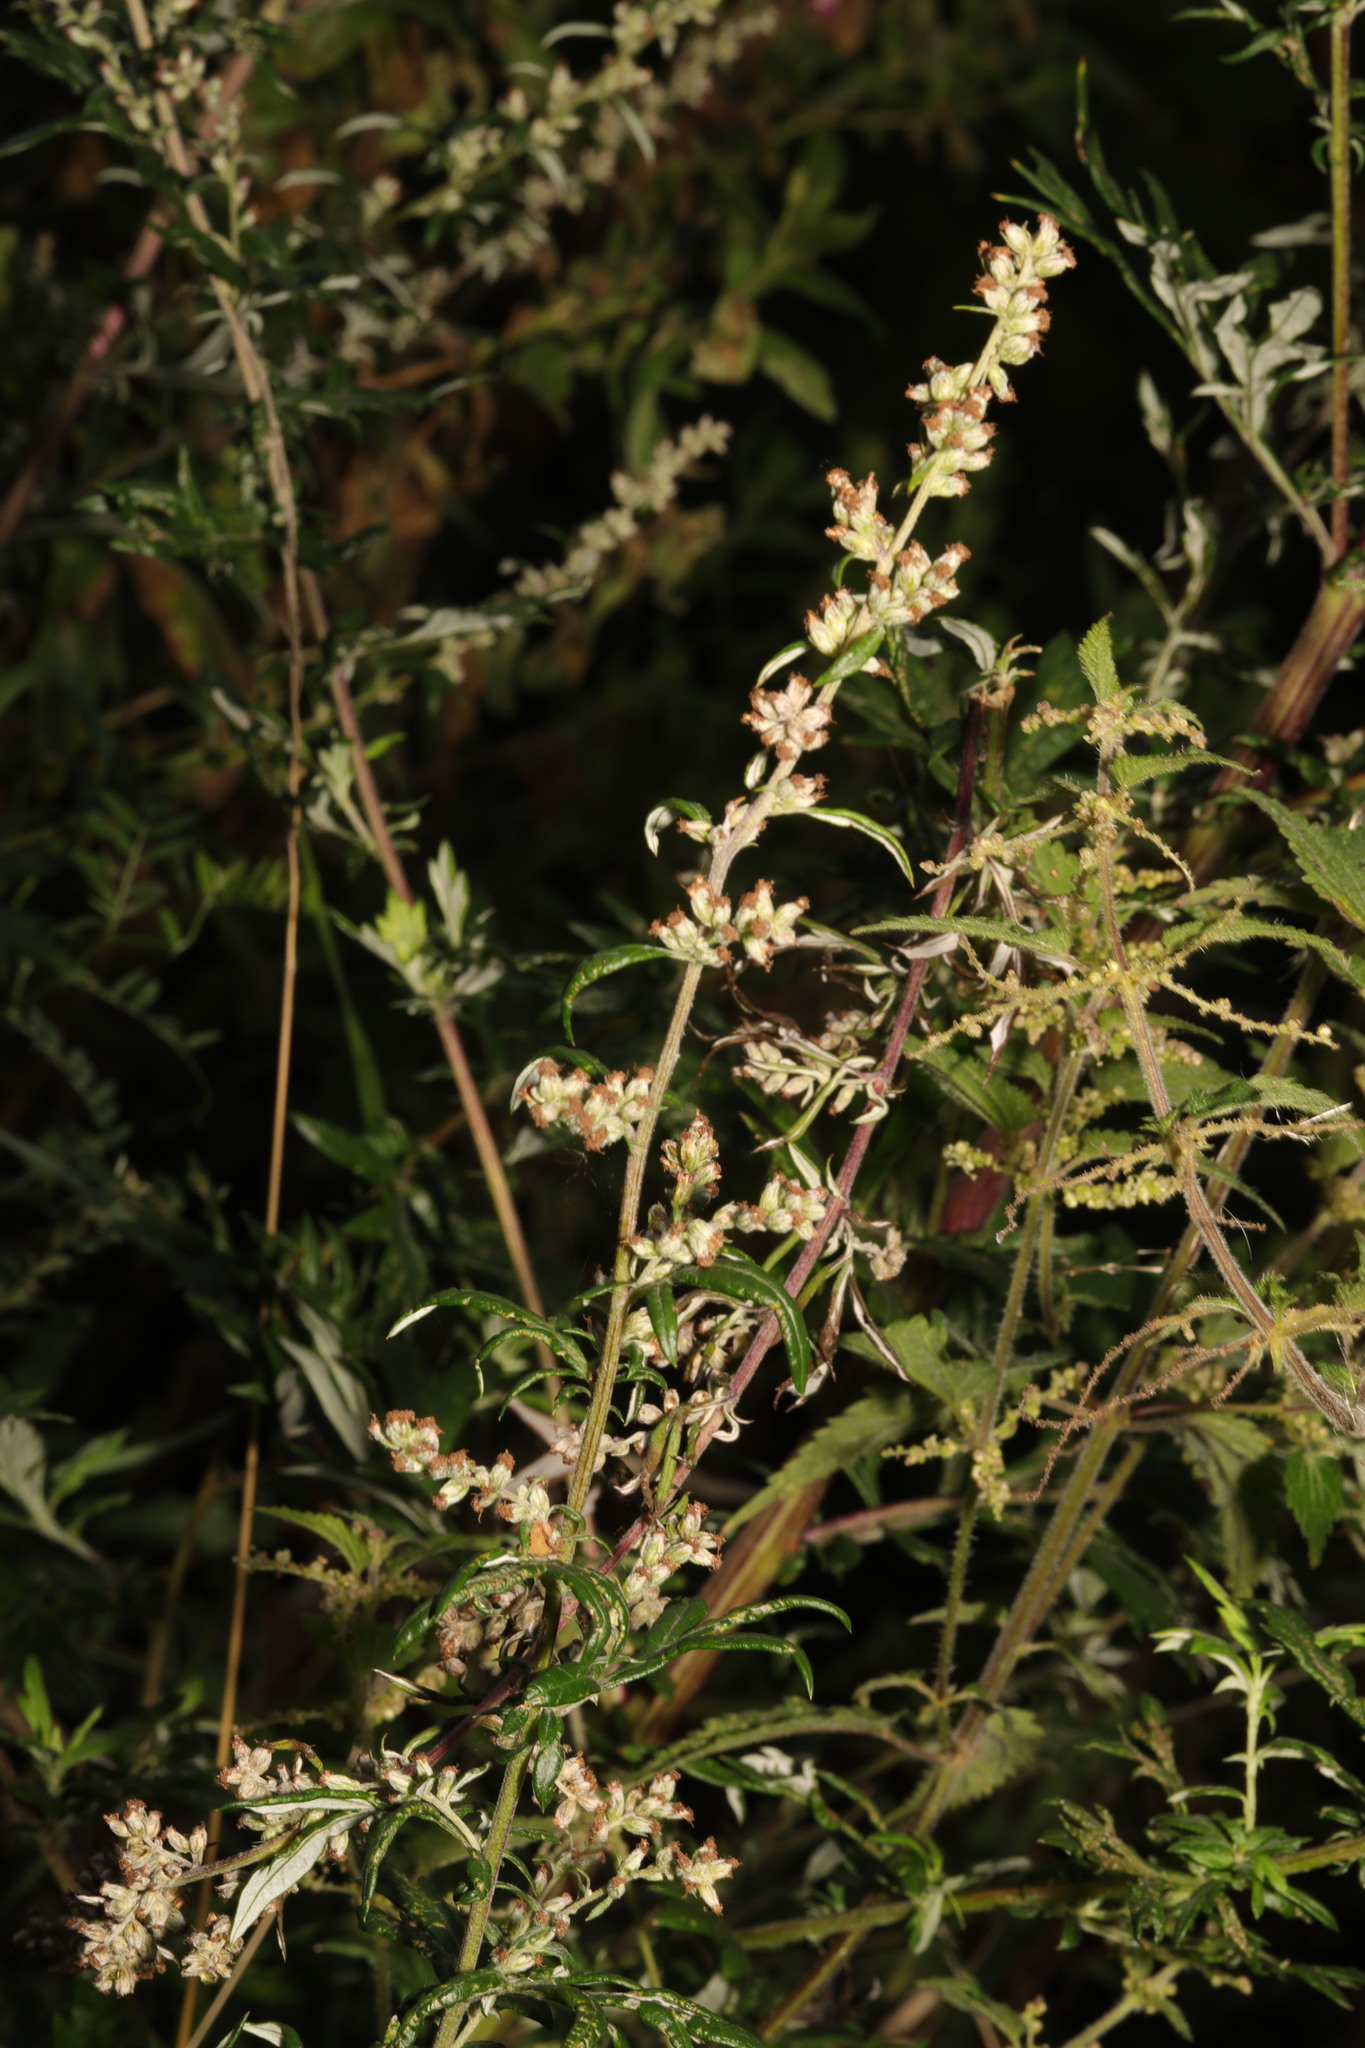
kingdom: Plantae
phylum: Tracheophyta
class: Magnoliopsida
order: Asterales
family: Asteraceae
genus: Artemisia
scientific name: Artemisia vulgaris
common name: Mugwort
